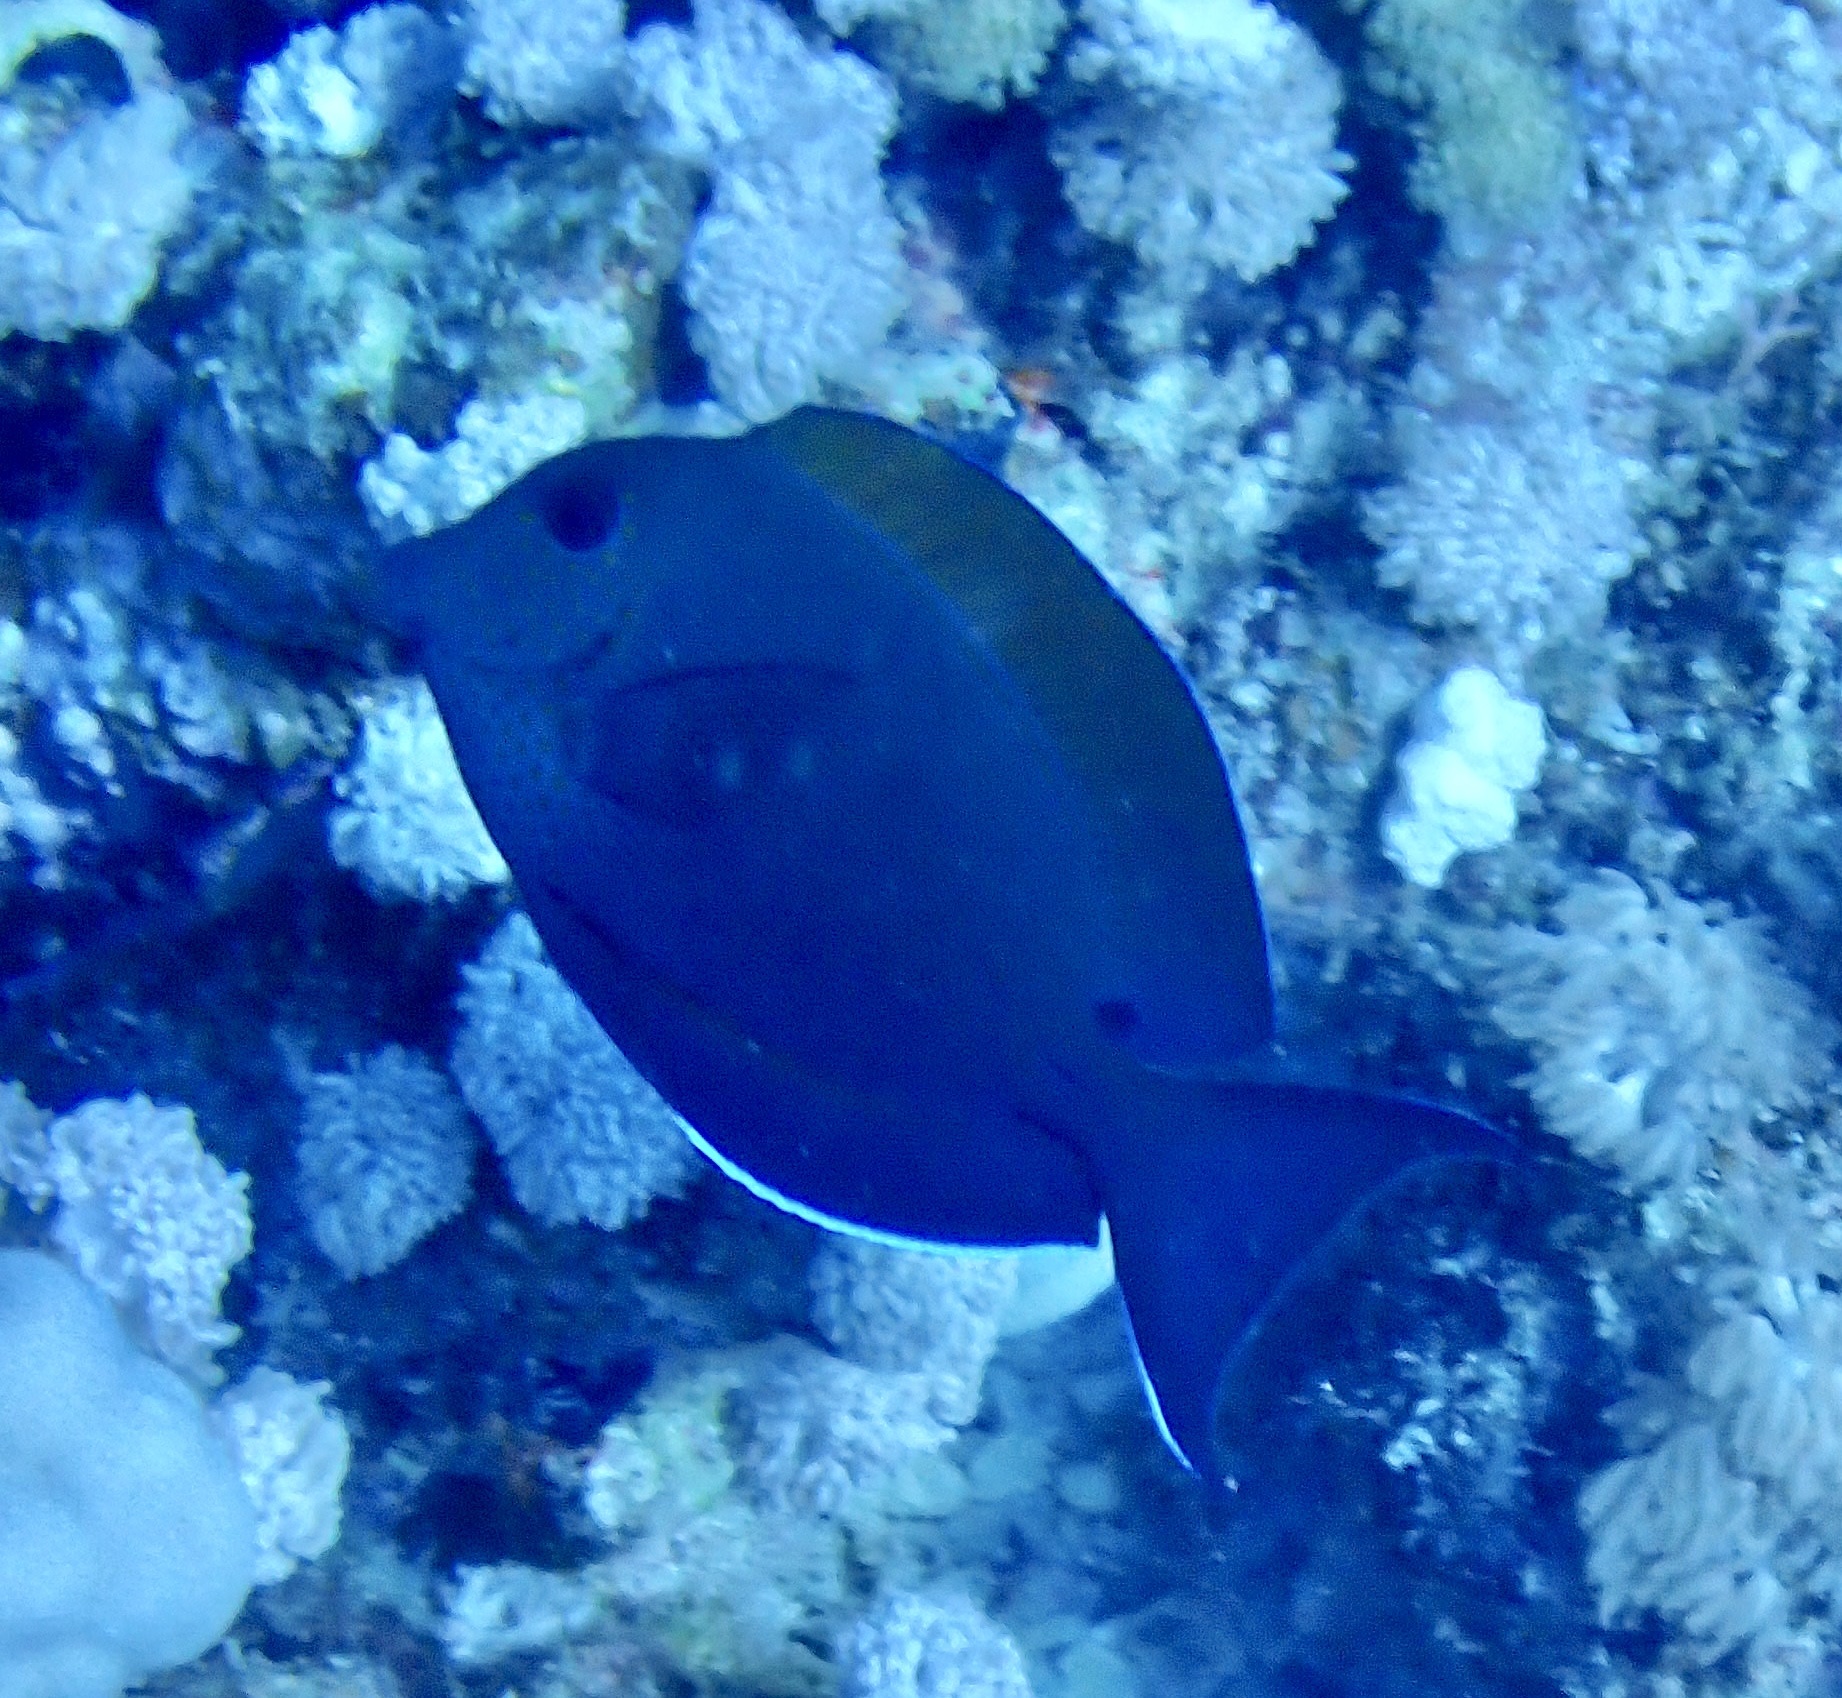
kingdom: Animalia
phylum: Chordata
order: Perciformes
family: Acanthuridae
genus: Acanthurus
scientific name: Acanthurus nigrofuscus
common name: Blackspot surgeonfish
